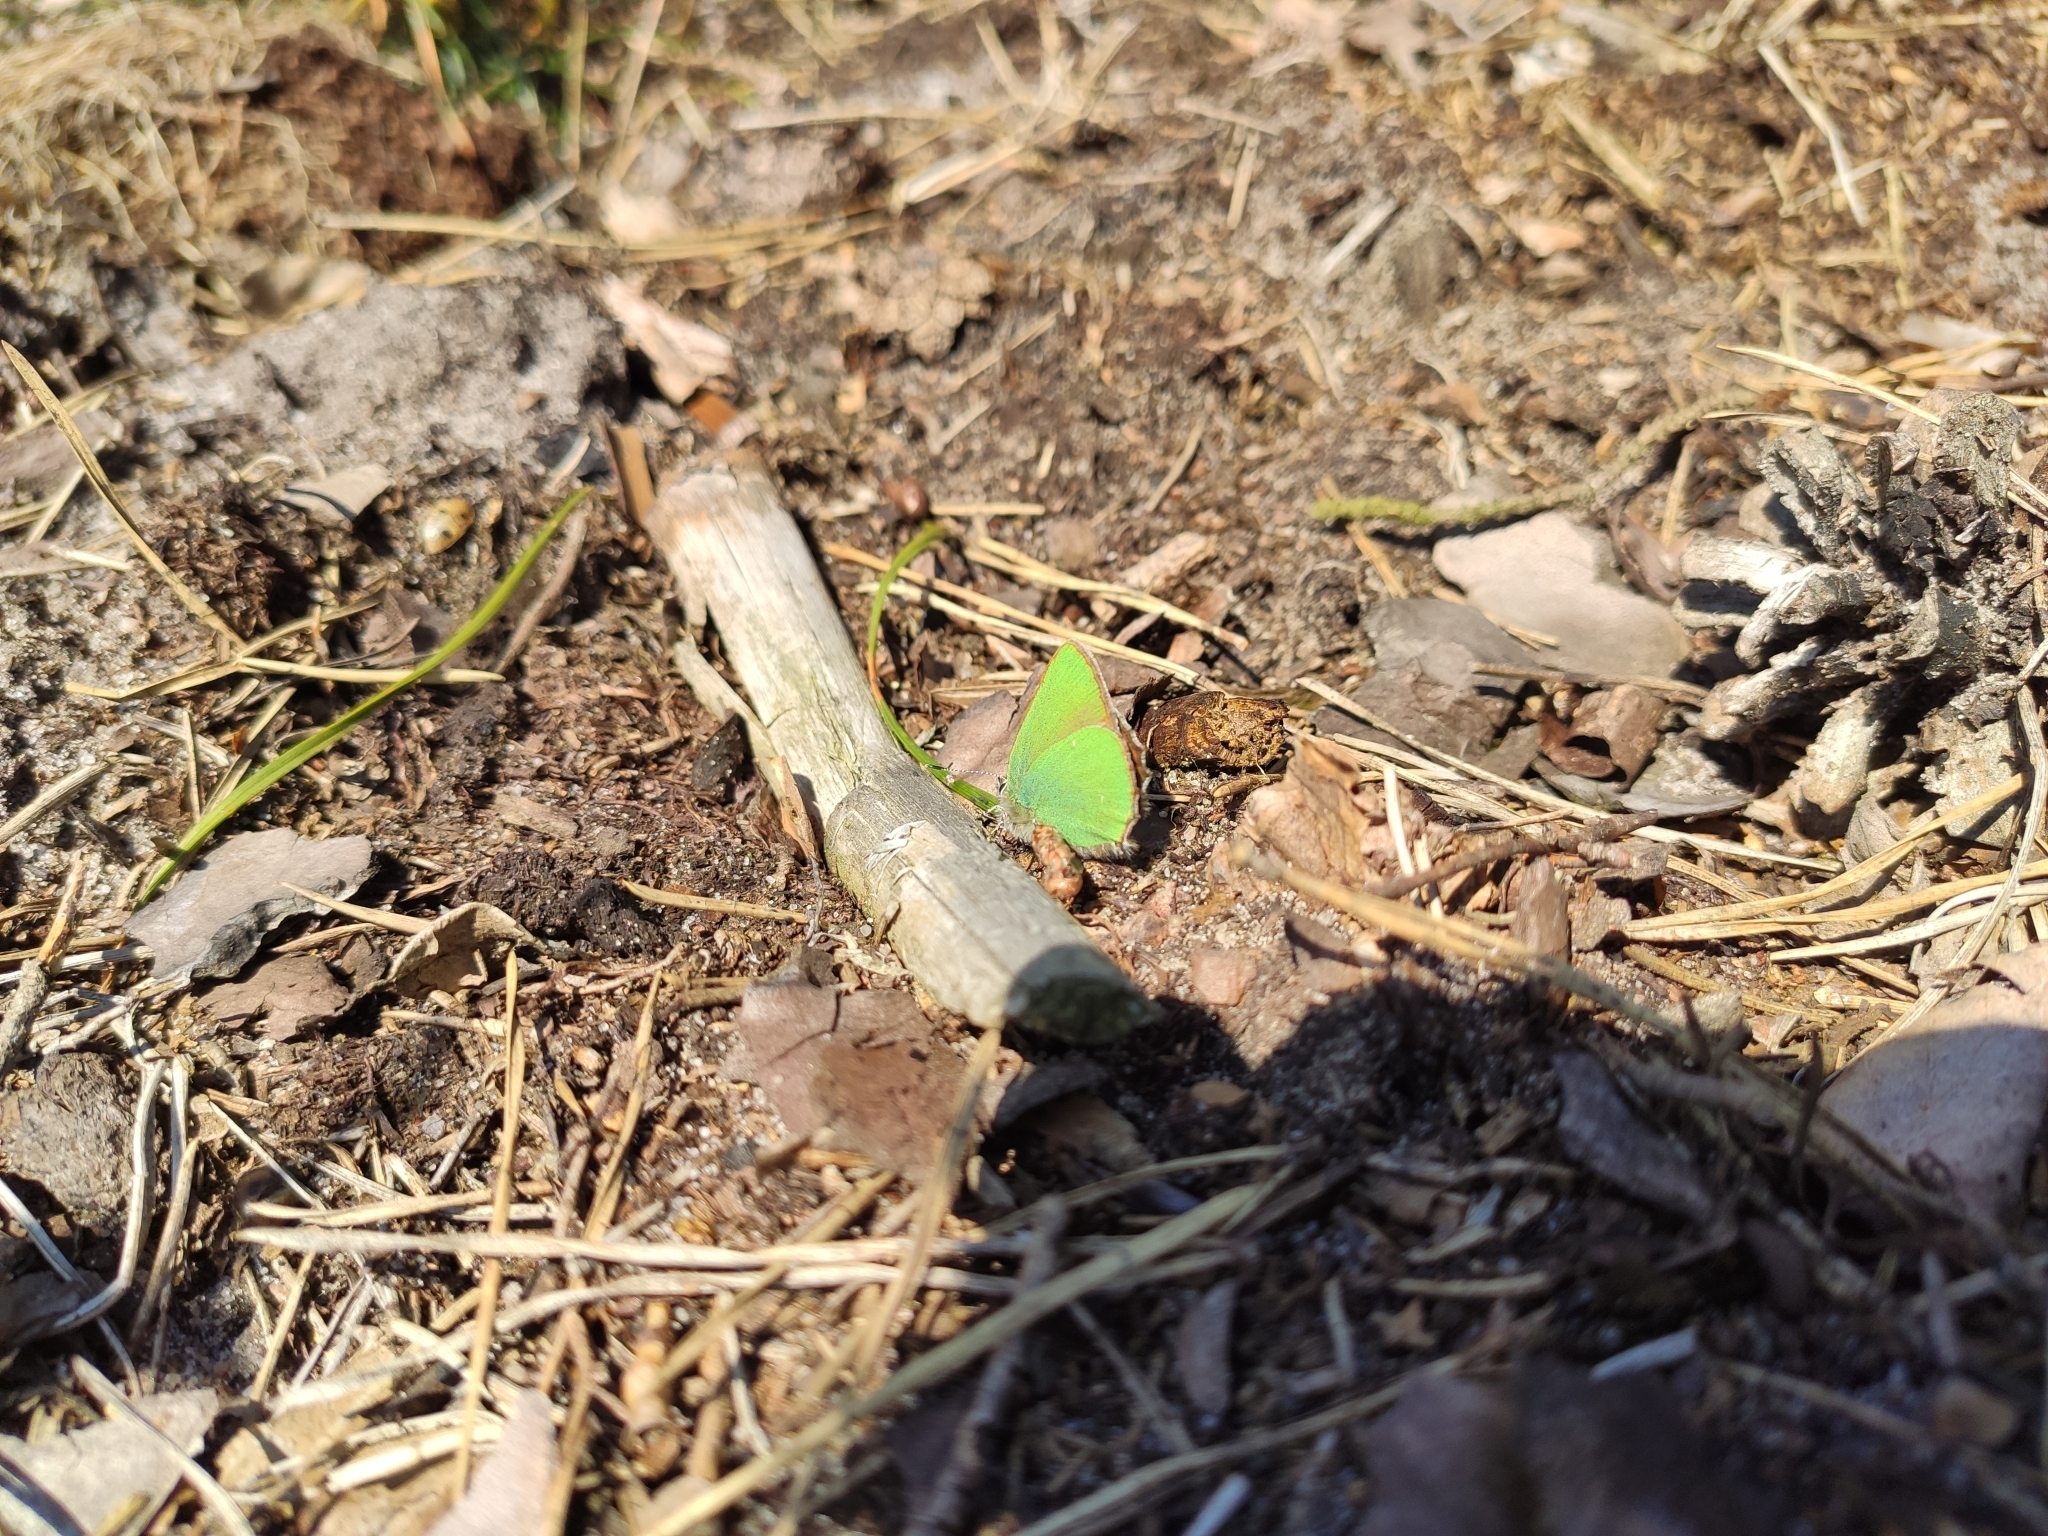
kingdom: Animalia
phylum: Arthropoda
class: Insecta
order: Lepidoptera
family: Lycaenidae
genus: Callophrys
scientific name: Callophrys rubi
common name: Green hairstreak
